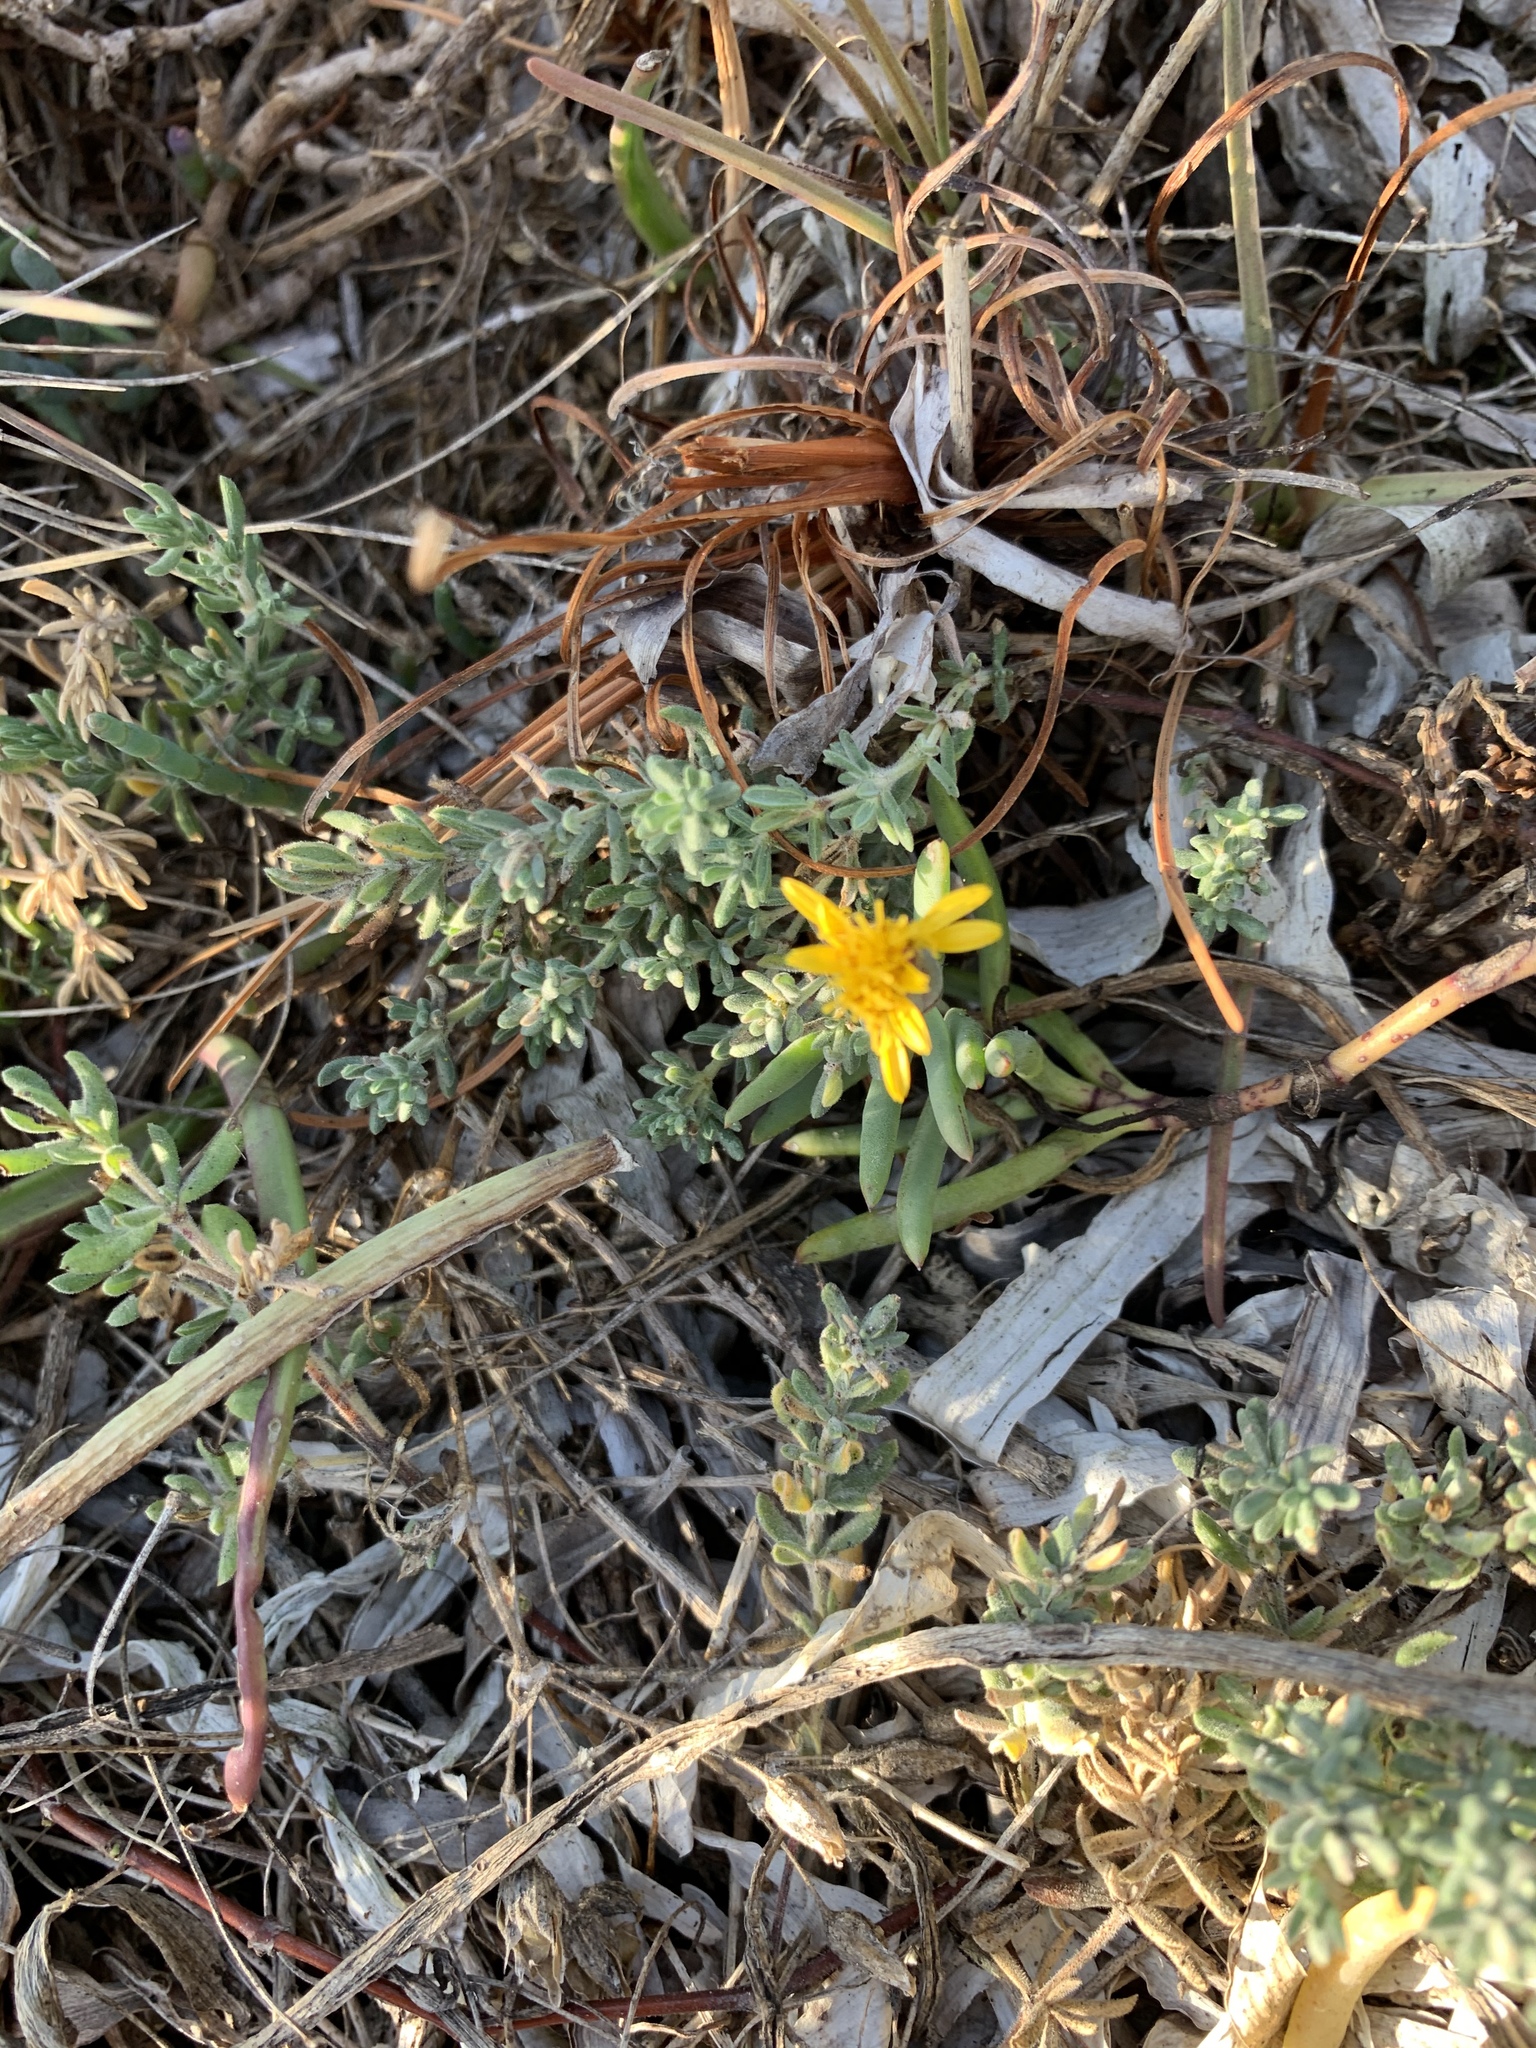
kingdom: Plantae
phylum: Tracheophyta
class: Magnoliopsida
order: Asterales
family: Asteraceae
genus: Jaumea
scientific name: Jaumea carnosa
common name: Fleshy jaumea
